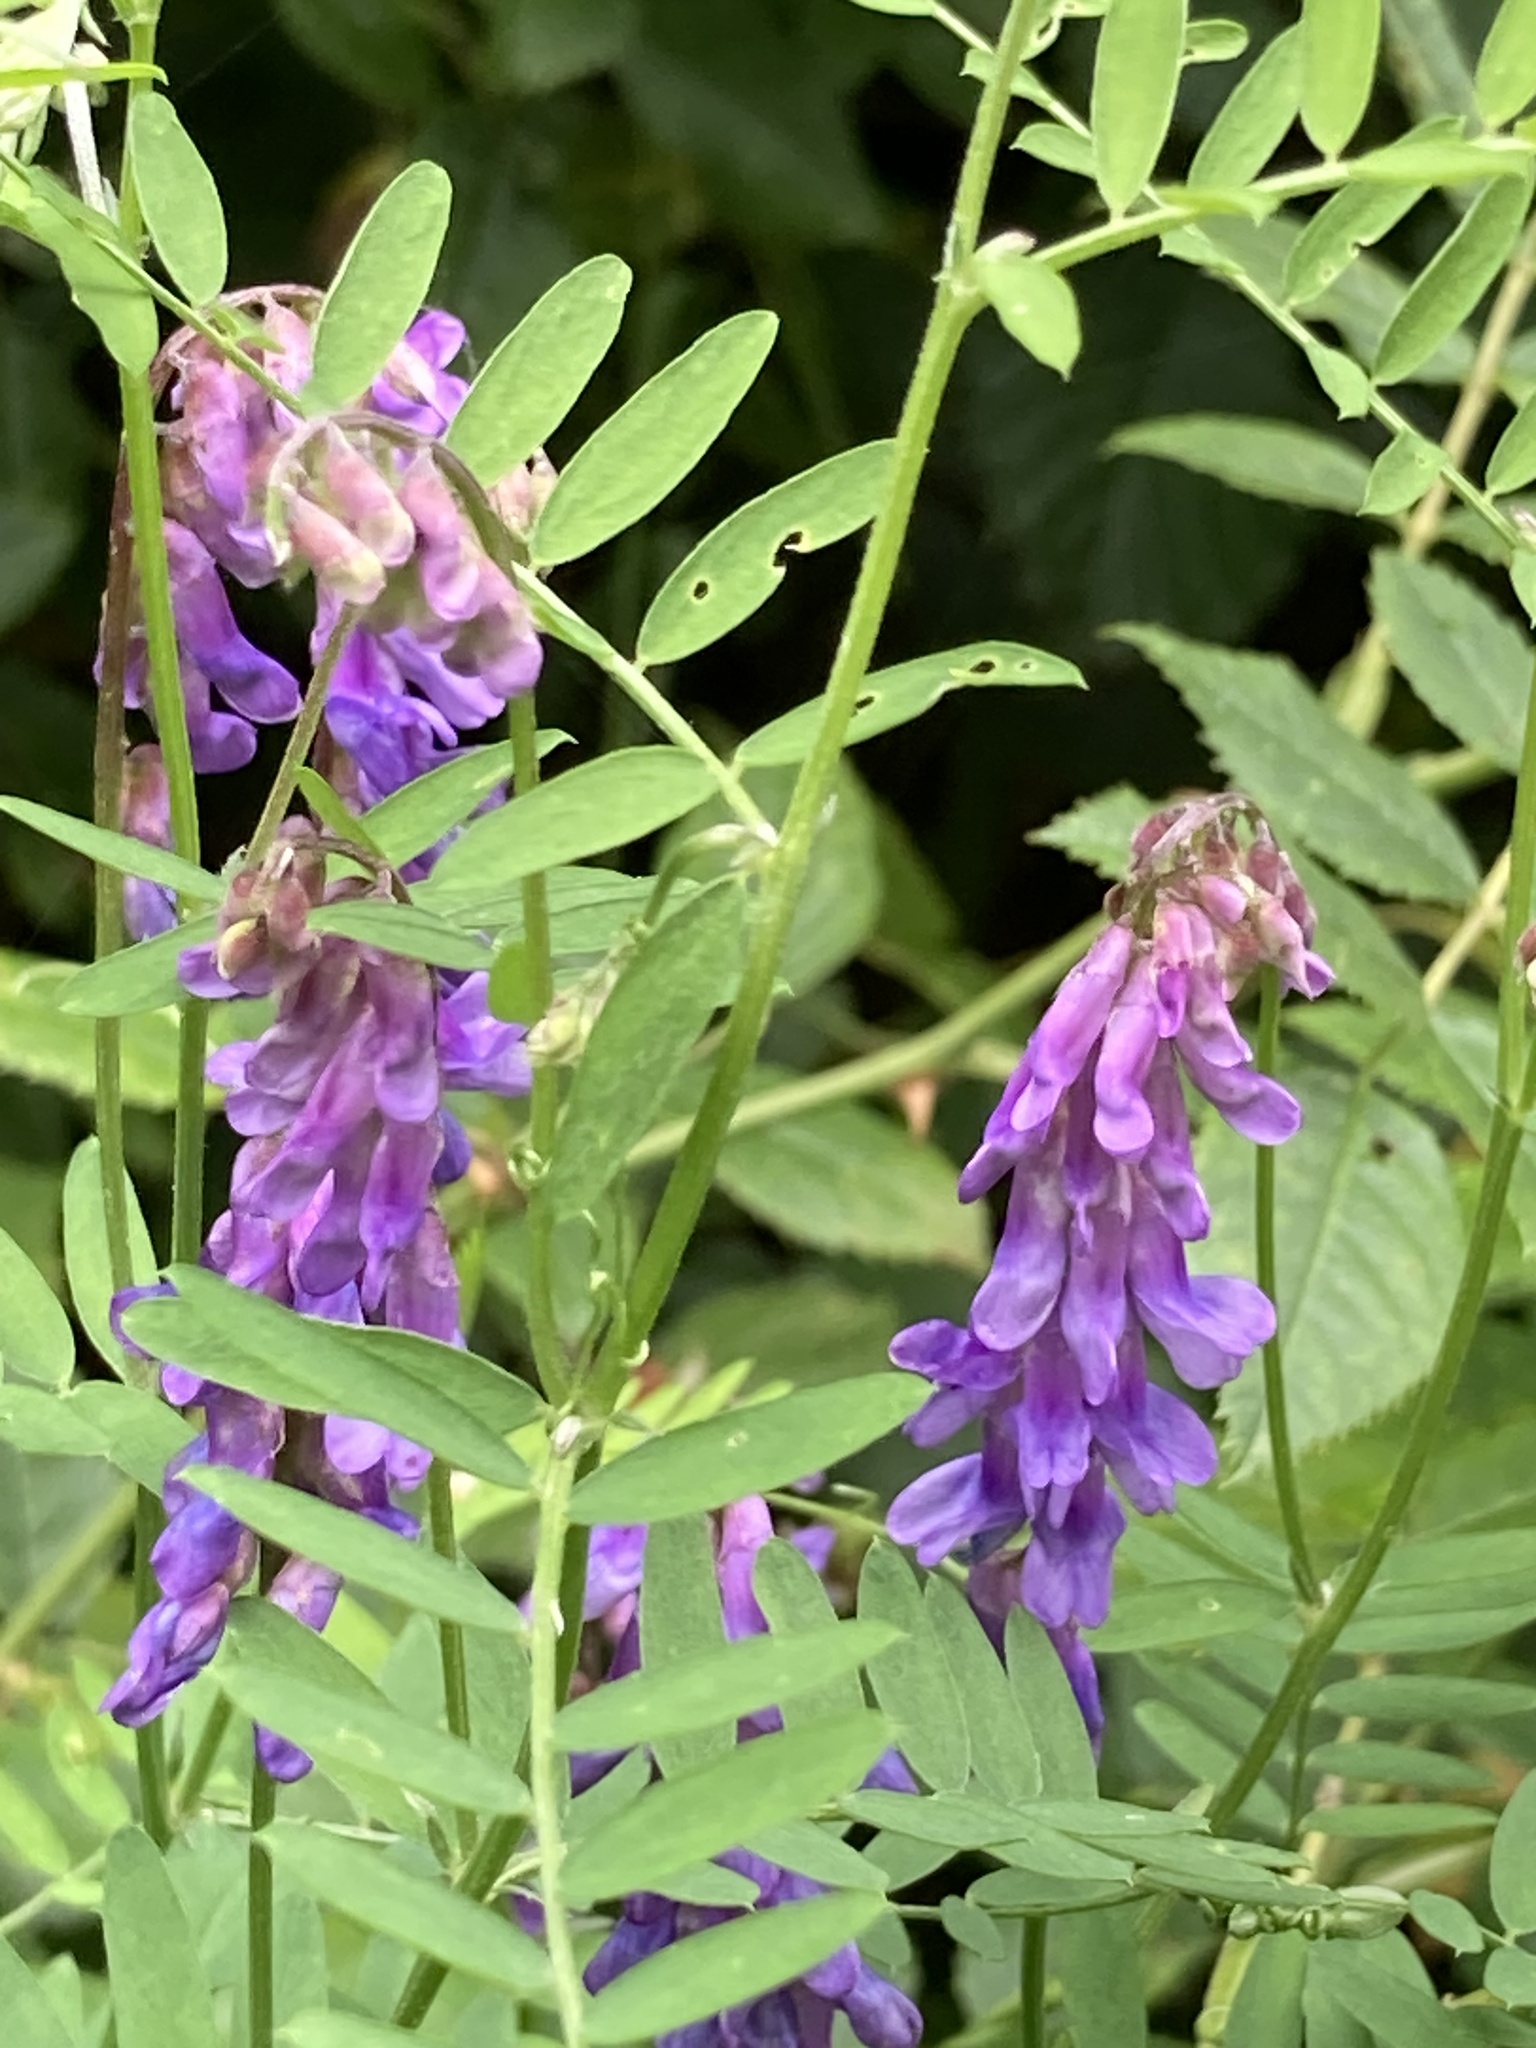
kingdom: Plantae
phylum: Tracheophyta
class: Magnoliopsida
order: Fabales
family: Fabaceae
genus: Vicia
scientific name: Vicia cracca
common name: Bird vetch
